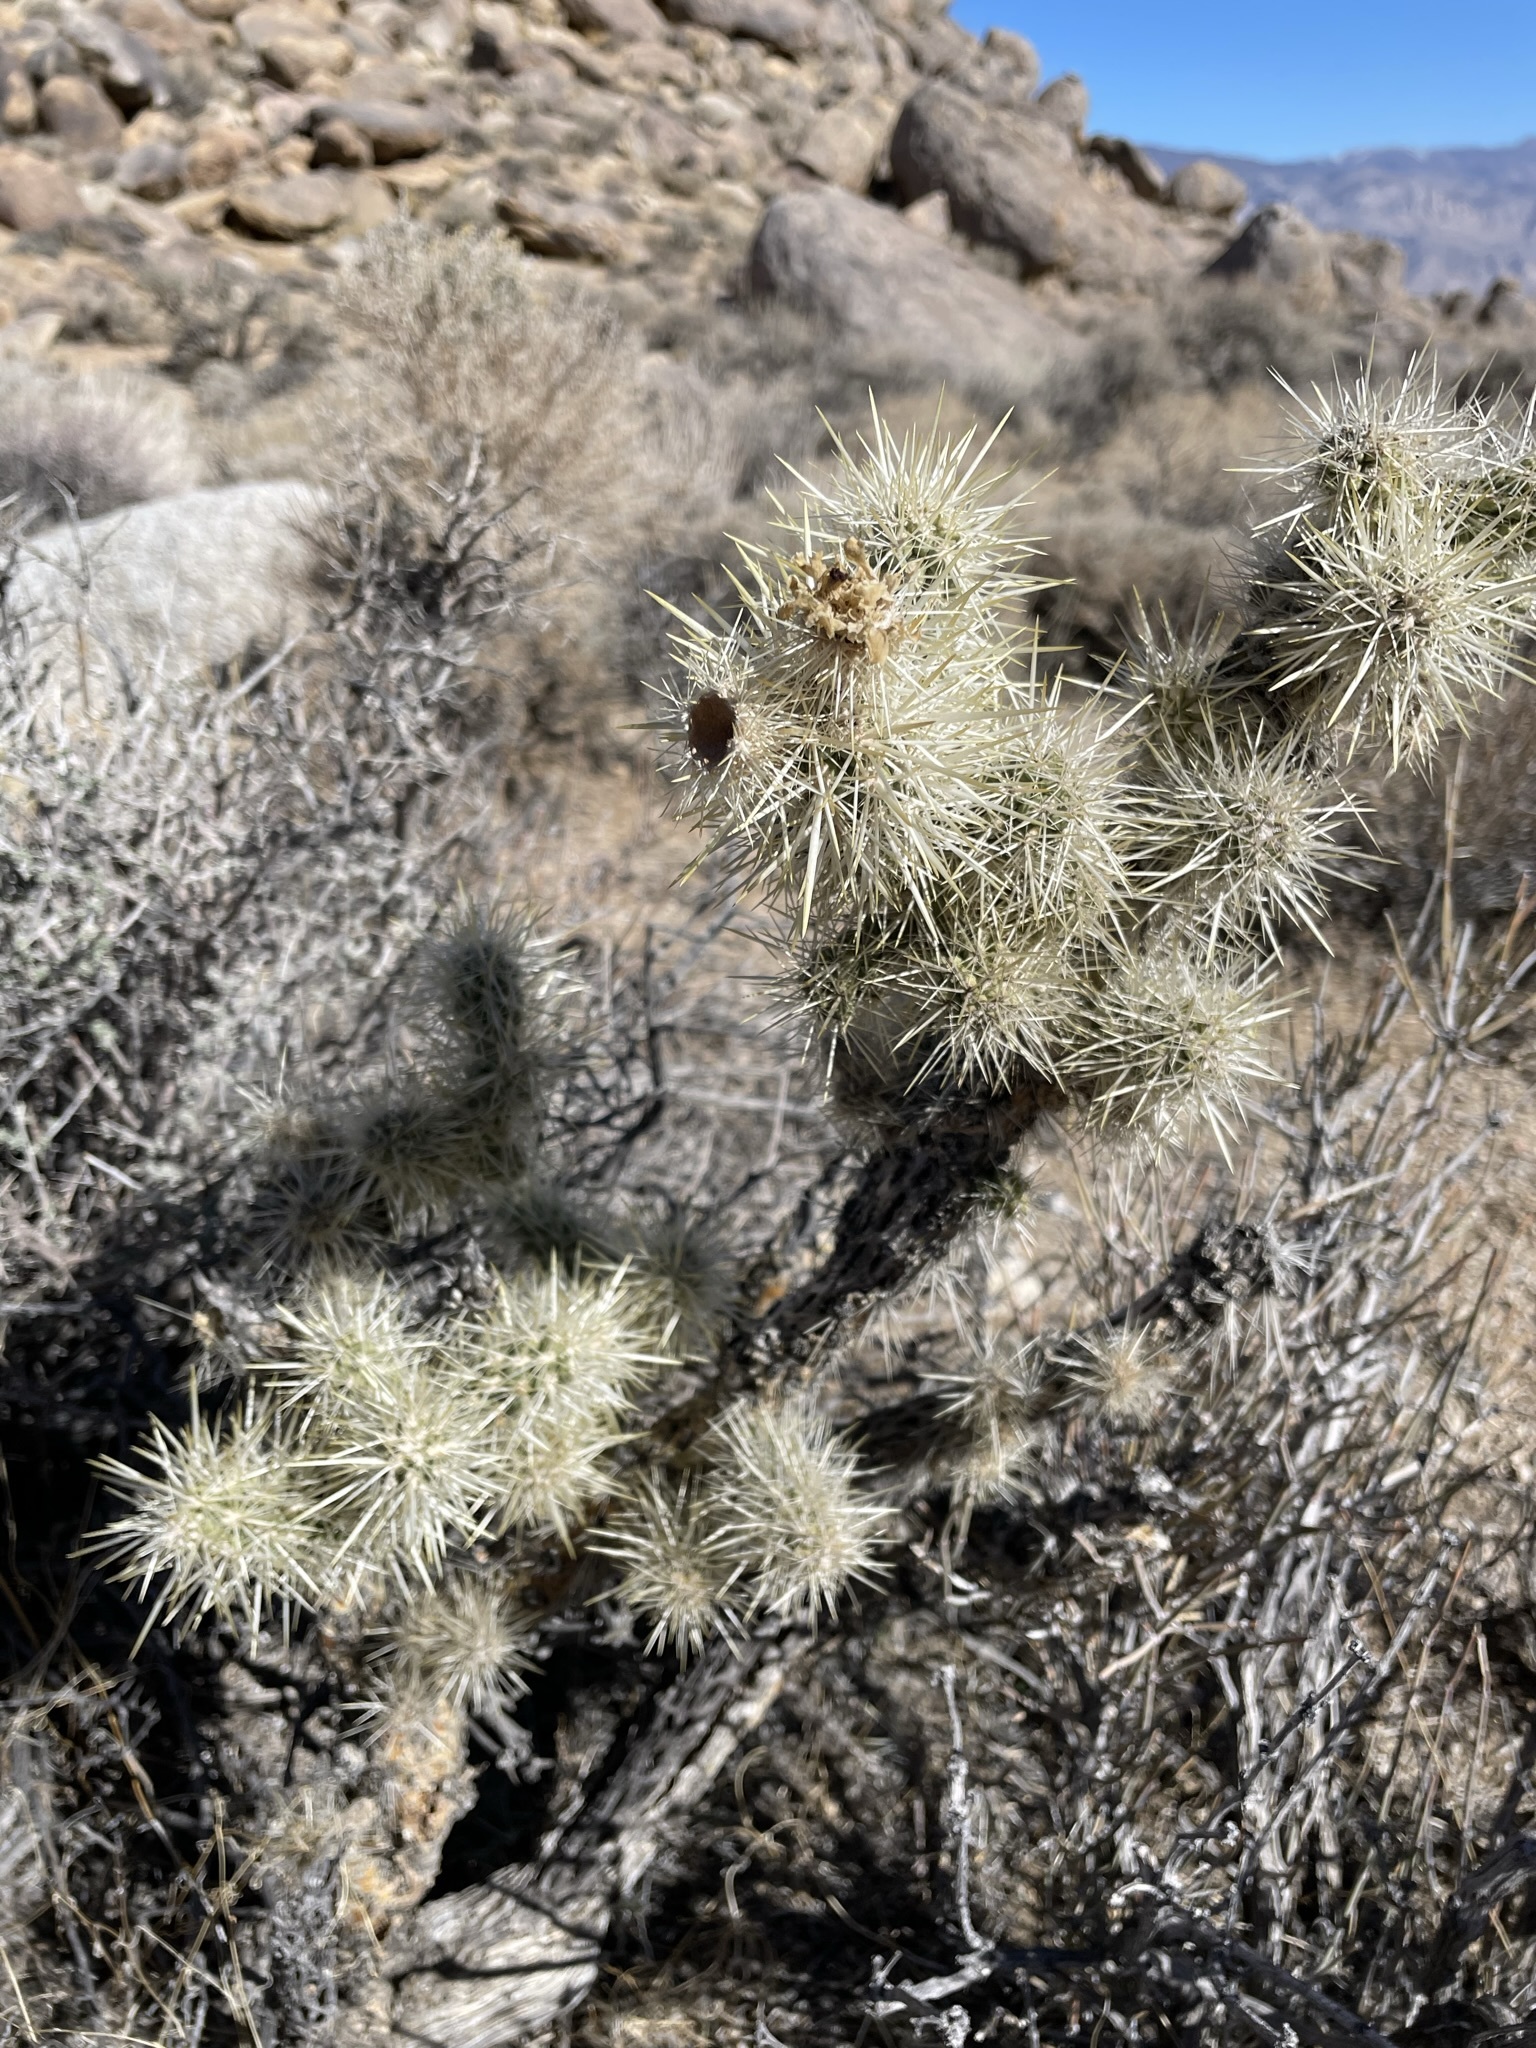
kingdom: Plantae
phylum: Tracheophyta
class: Magnoliopsida
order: Caryophyllales
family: Cactaceae
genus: Cylindropuntia
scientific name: Cylindropuntia echinocarpa
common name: Ground cholla
